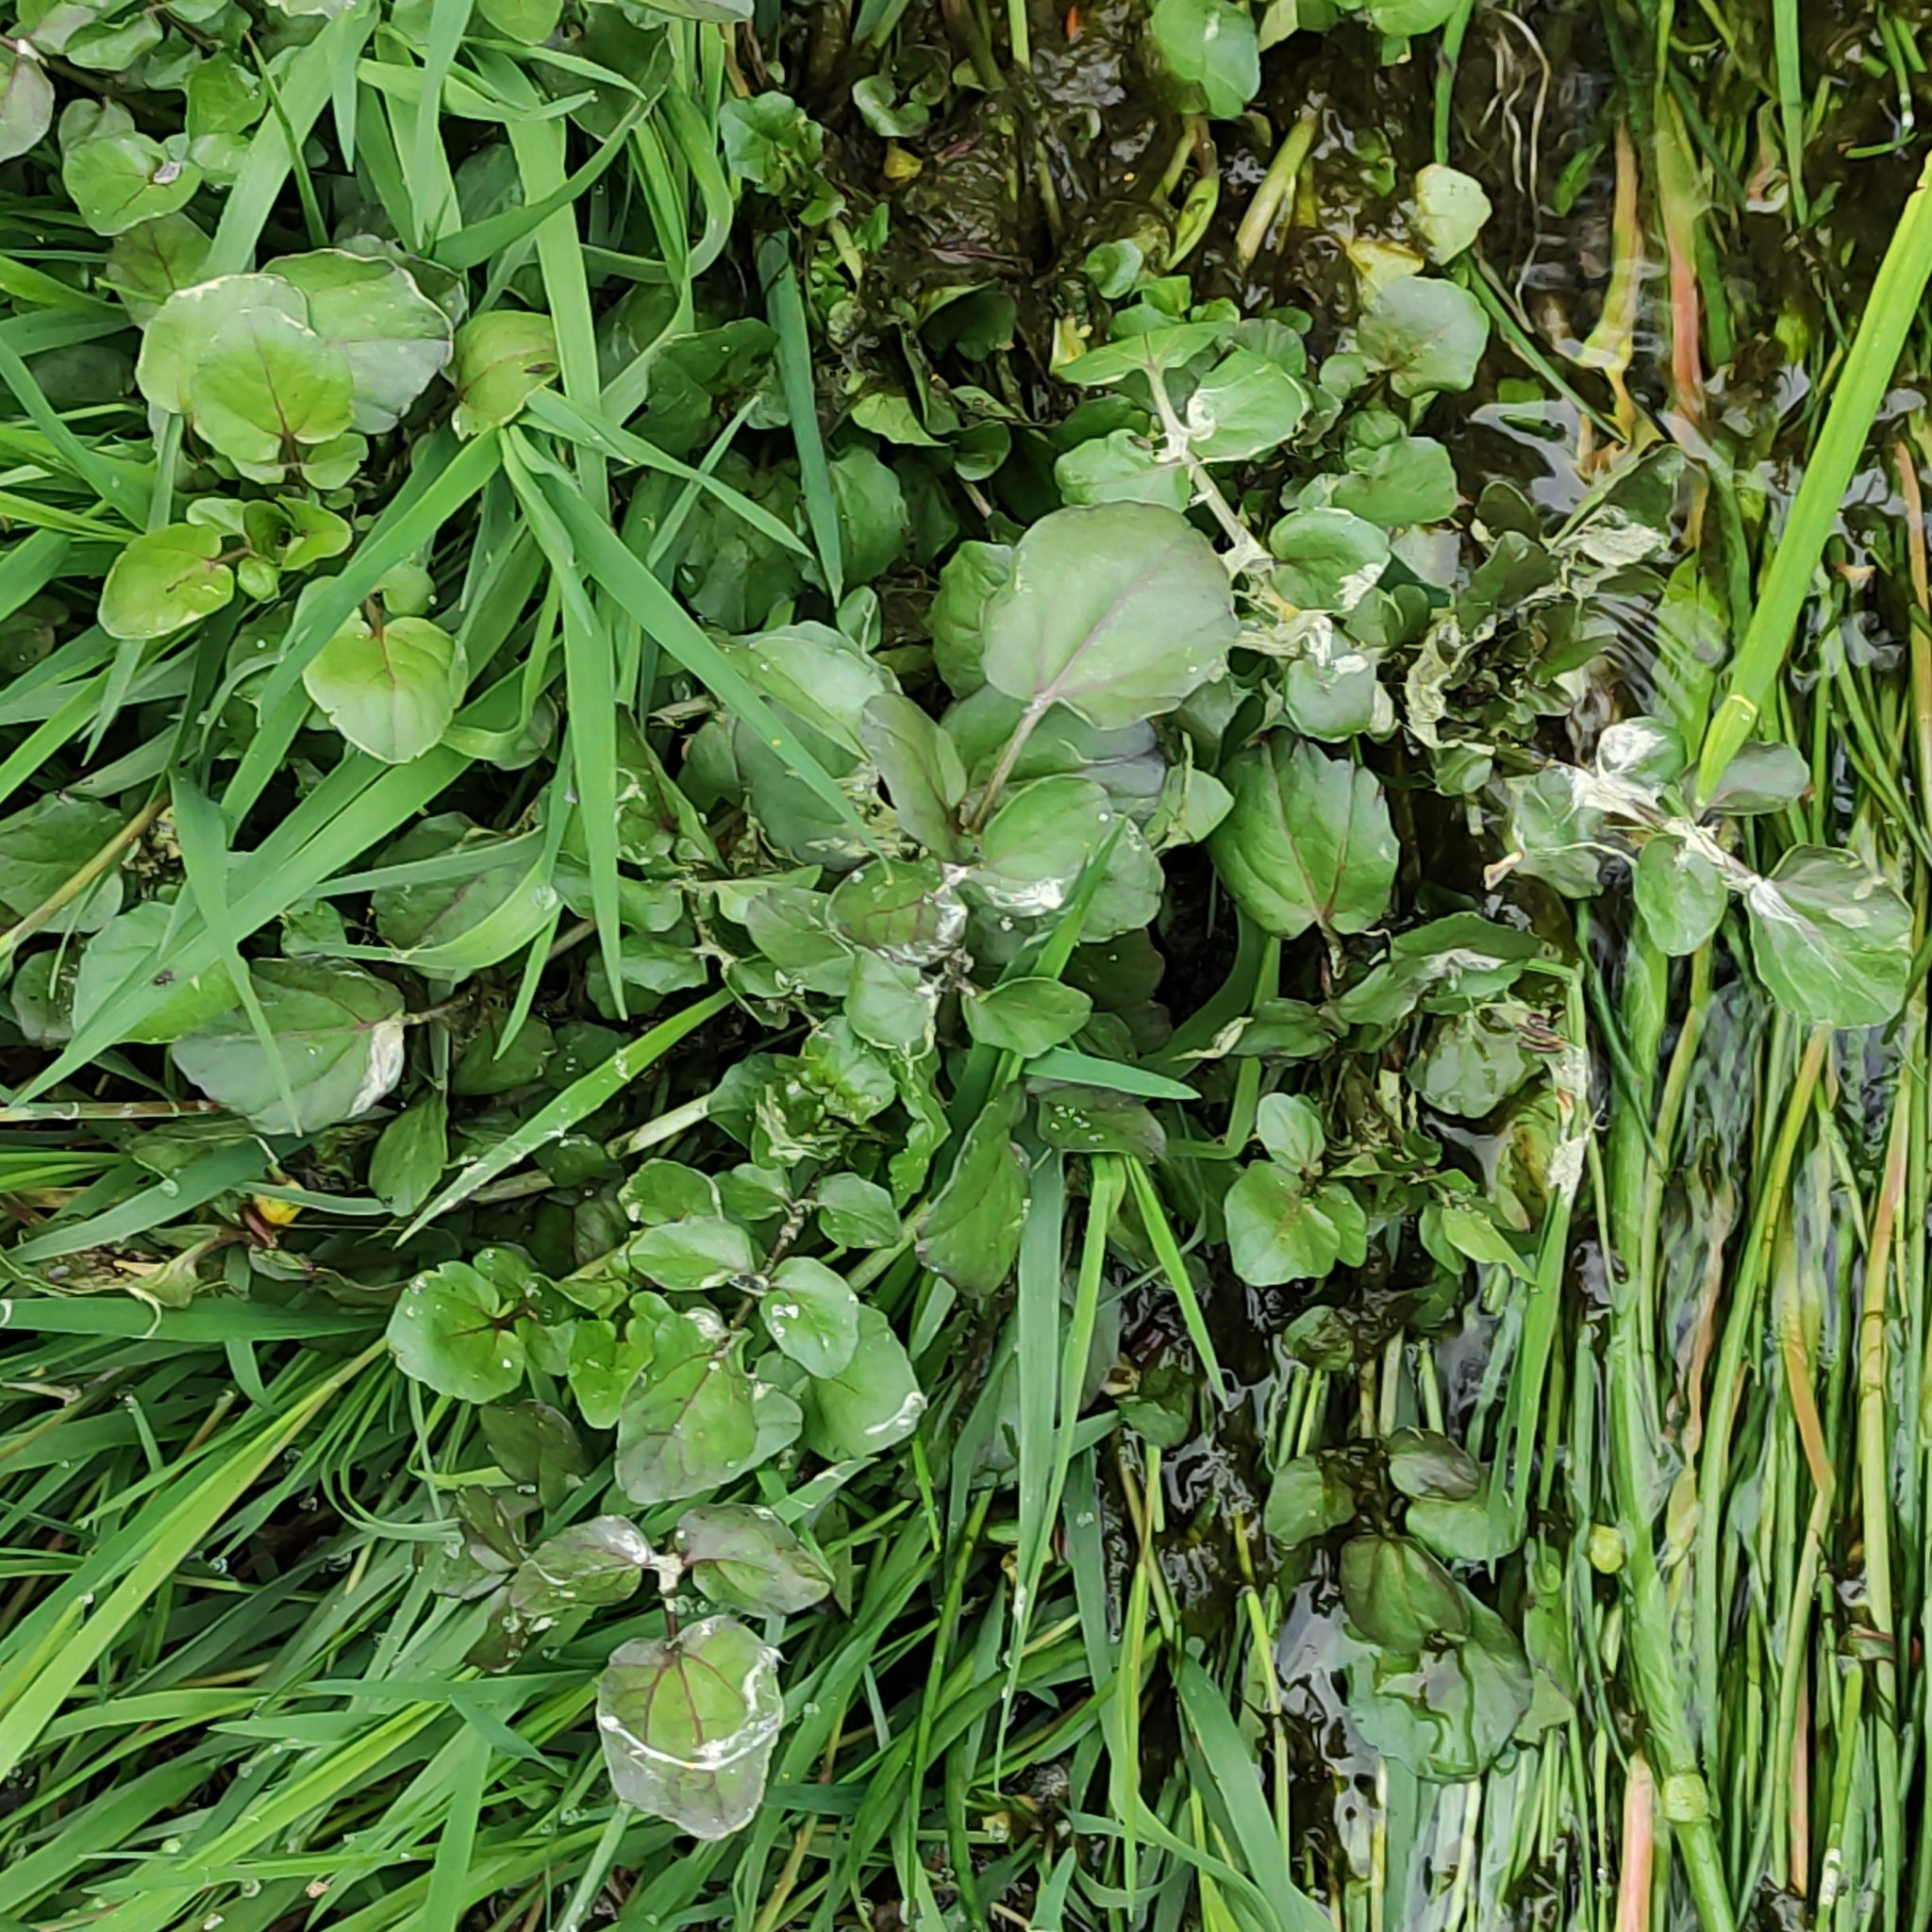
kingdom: Plantae
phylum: Tracheophyta
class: Magnoliopsida
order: Brassicales
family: Brassicaceae
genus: Nasturtium
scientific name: Nasturtium officinale
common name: Watercress
